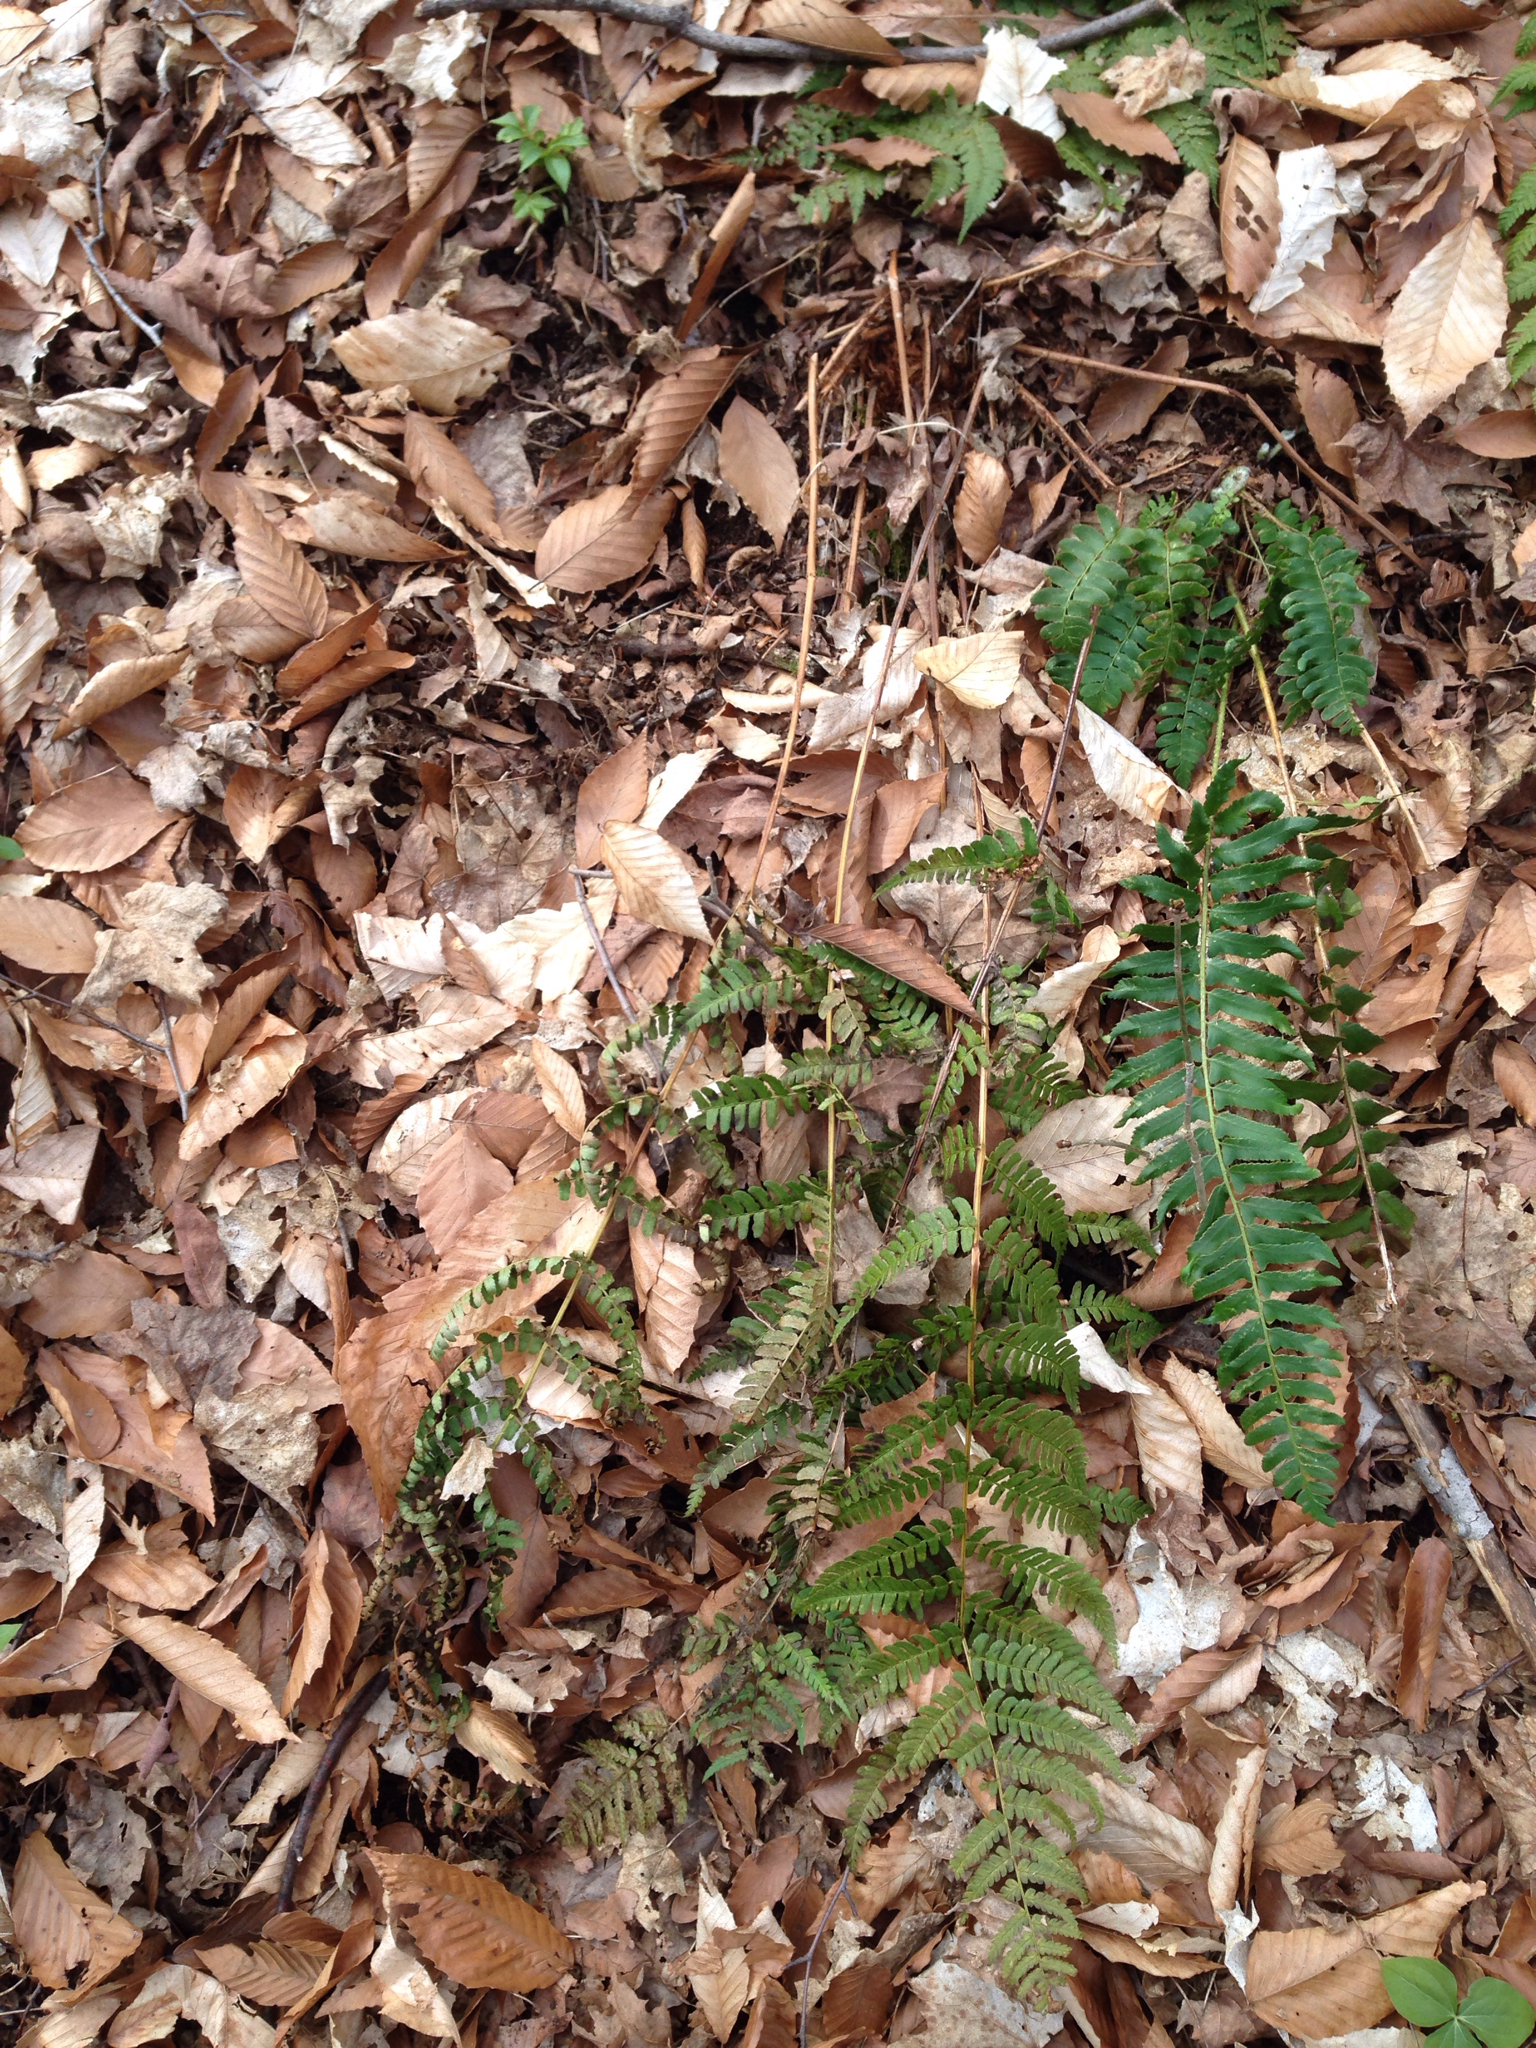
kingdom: Plantae
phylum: Tracheophyta
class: Polypodiopsida
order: Polypodiales
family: Dryopteridaceae
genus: Dryopteris
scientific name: Dryopteris marginalis
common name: Marginal wood fern
